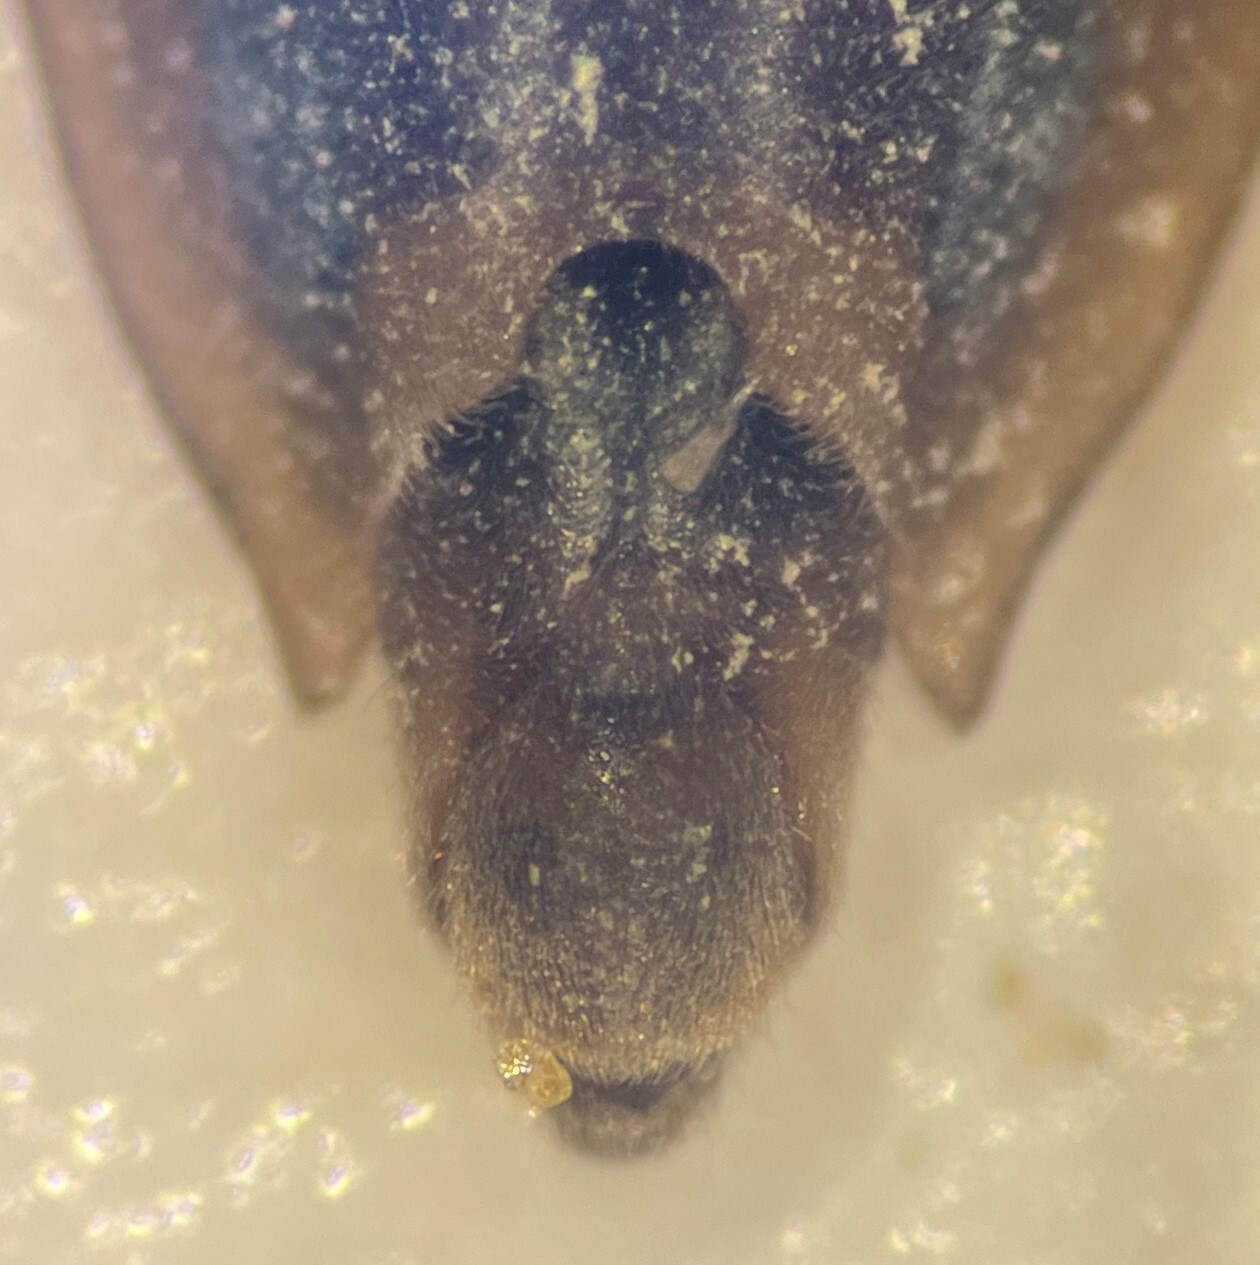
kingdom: Animalia
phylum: Arthropoda
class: Insecta
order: Hemiptera
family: Gerridae
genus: Gerris
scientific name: Gerris marginatus
